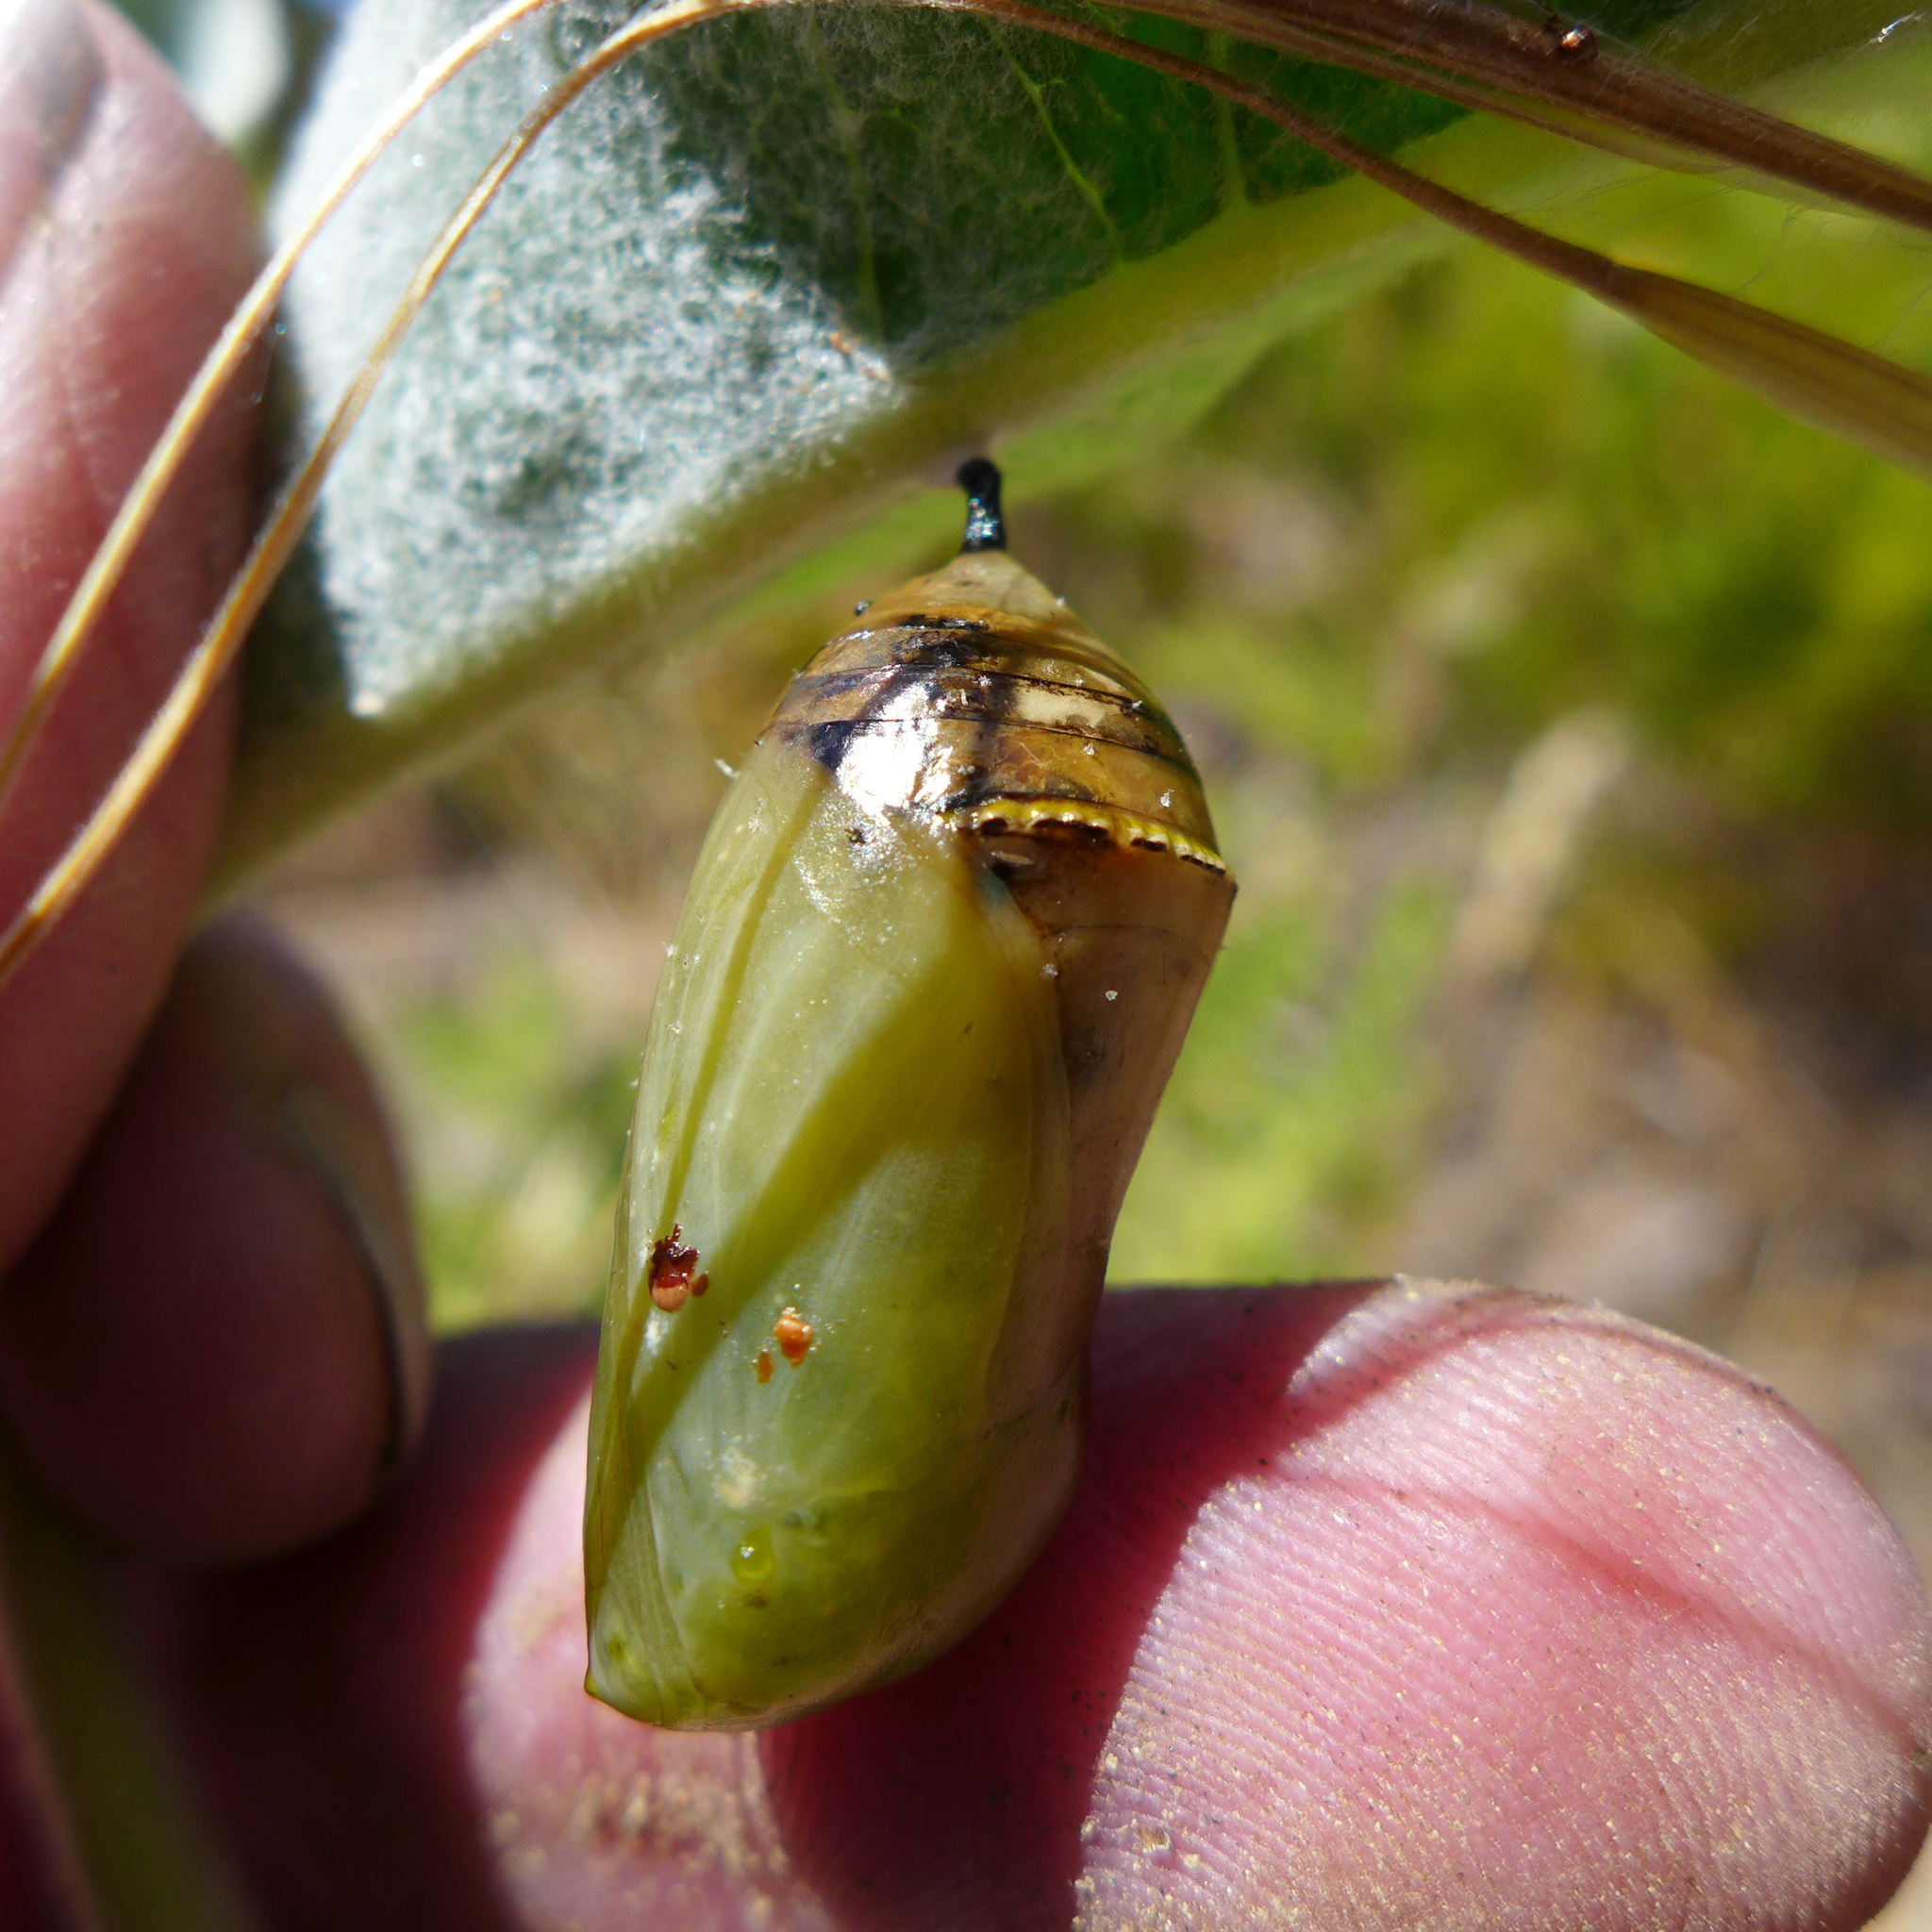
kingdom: Animalia
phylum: Arthropoda
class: Insecta
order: Hemiptera
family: Lygaeidae
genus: Lygaeus
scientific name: Lygaeus kalmii
